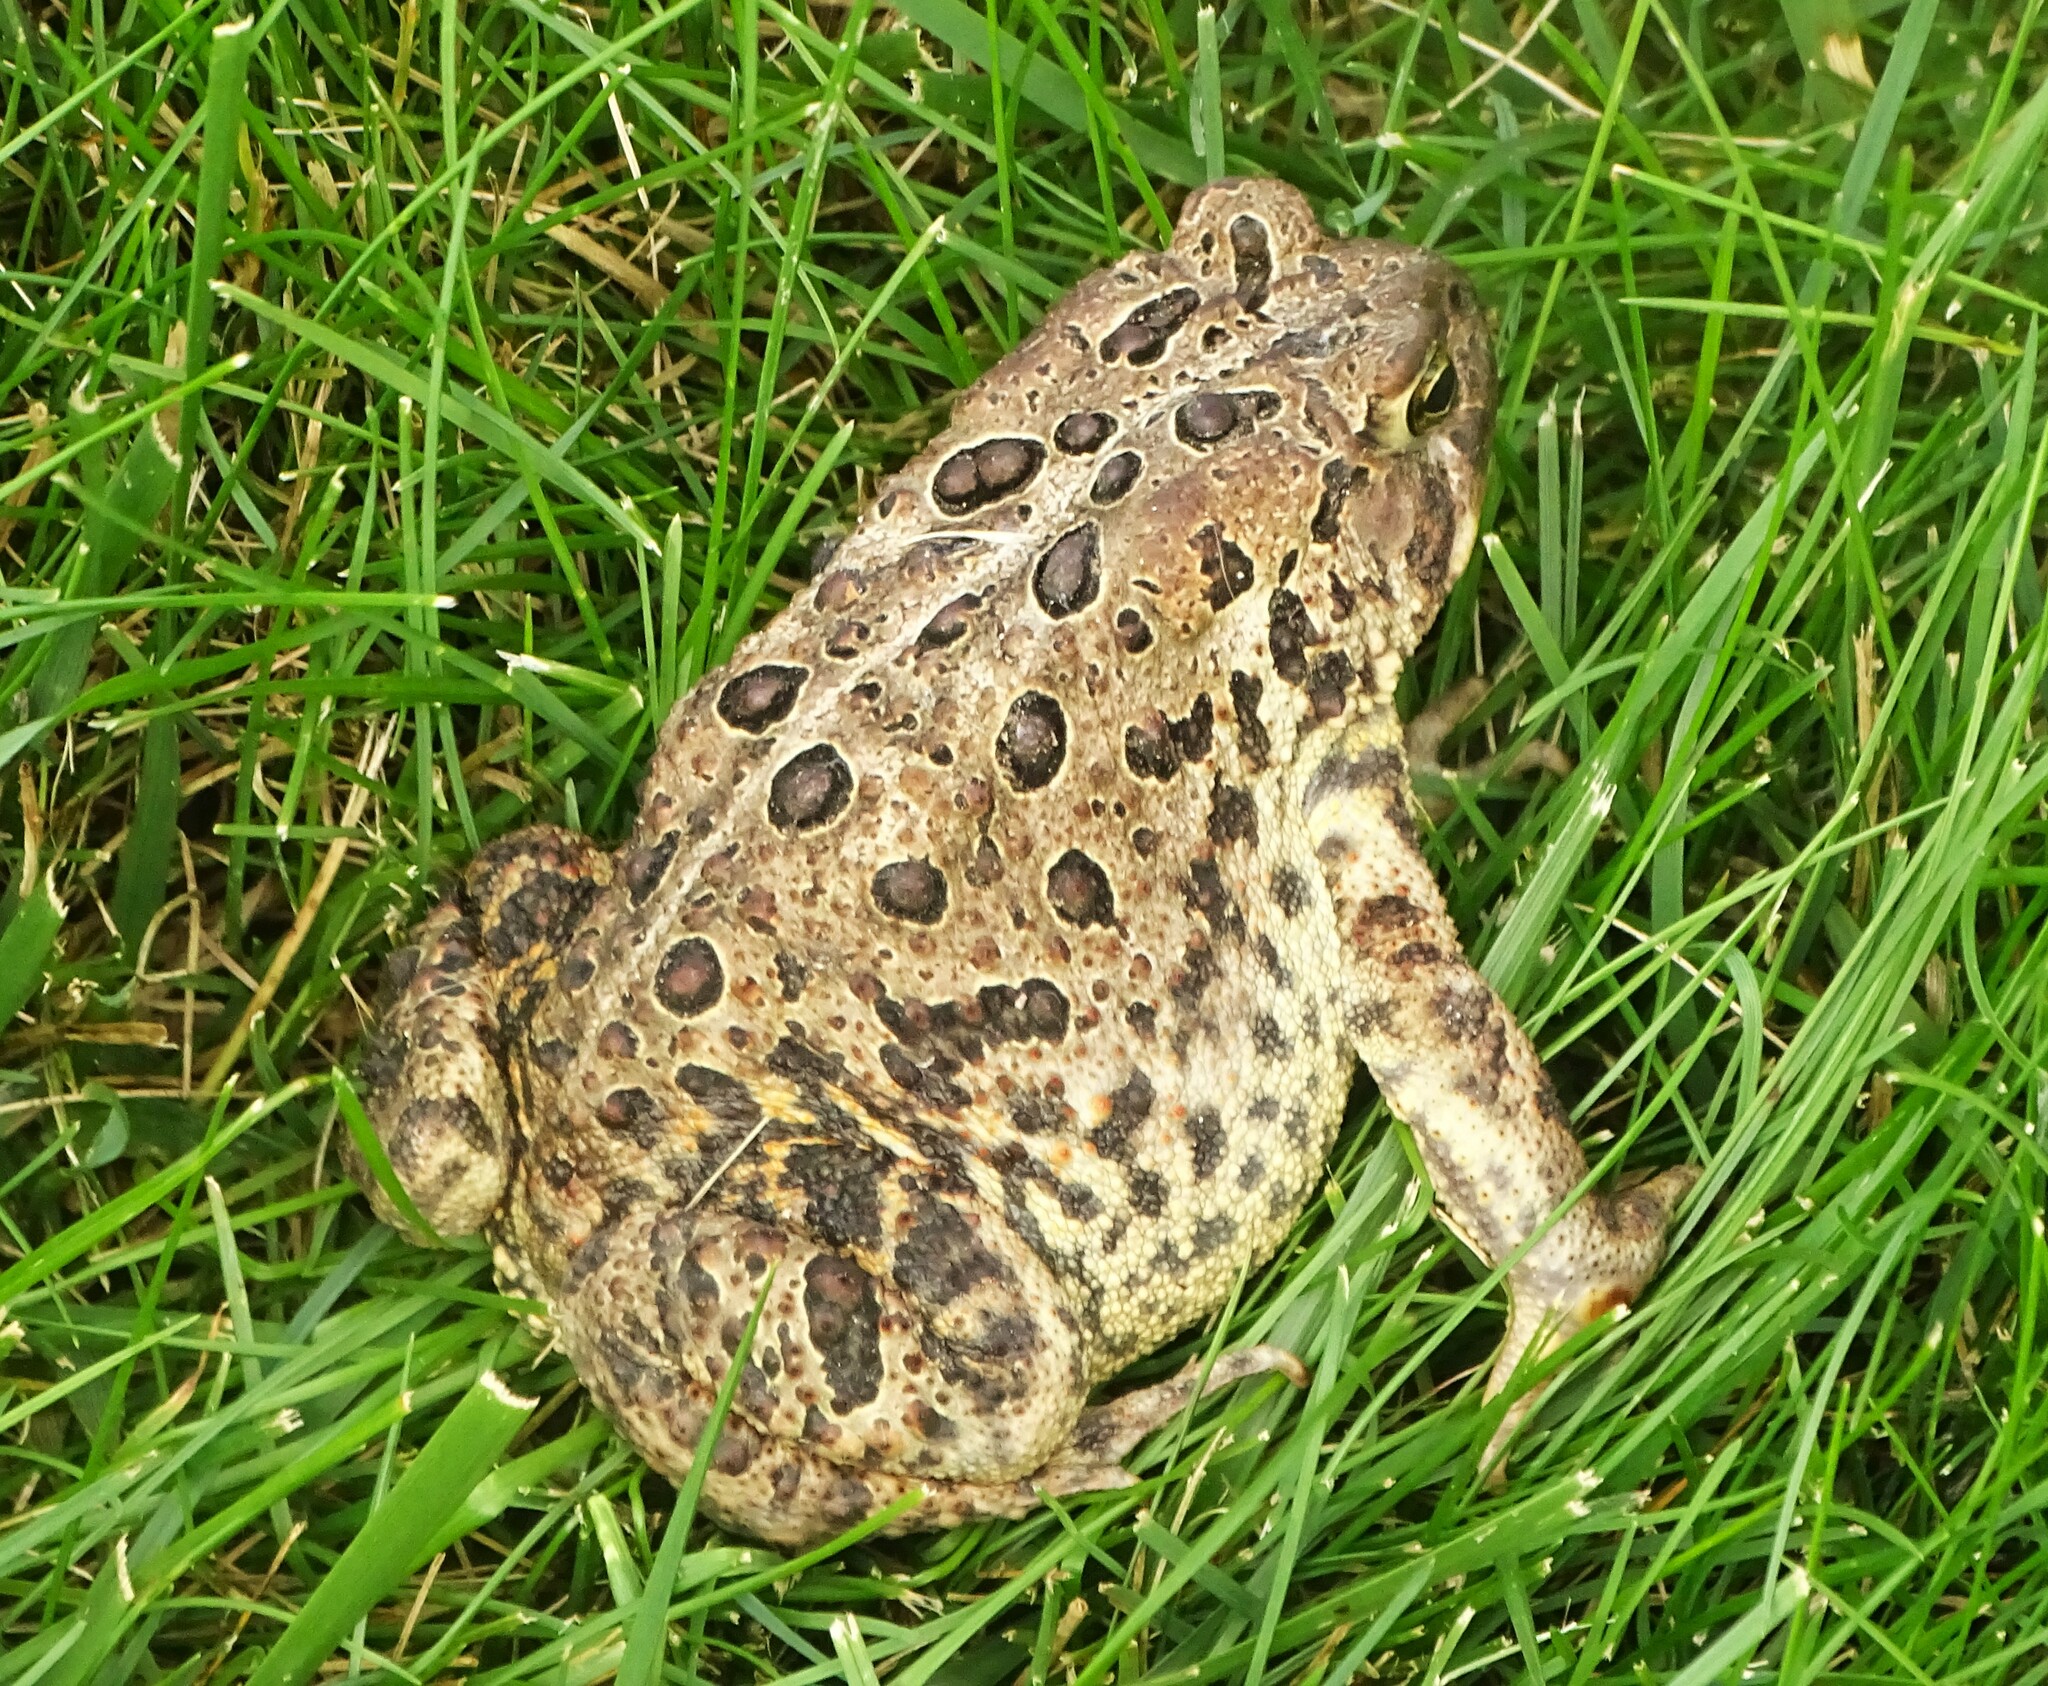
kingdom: Animalia
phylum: Chordata
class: Amphibia
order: Anura
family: Bufonidae
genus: Anaxyrus
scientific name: Anaxyrus americanus
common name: American toad
